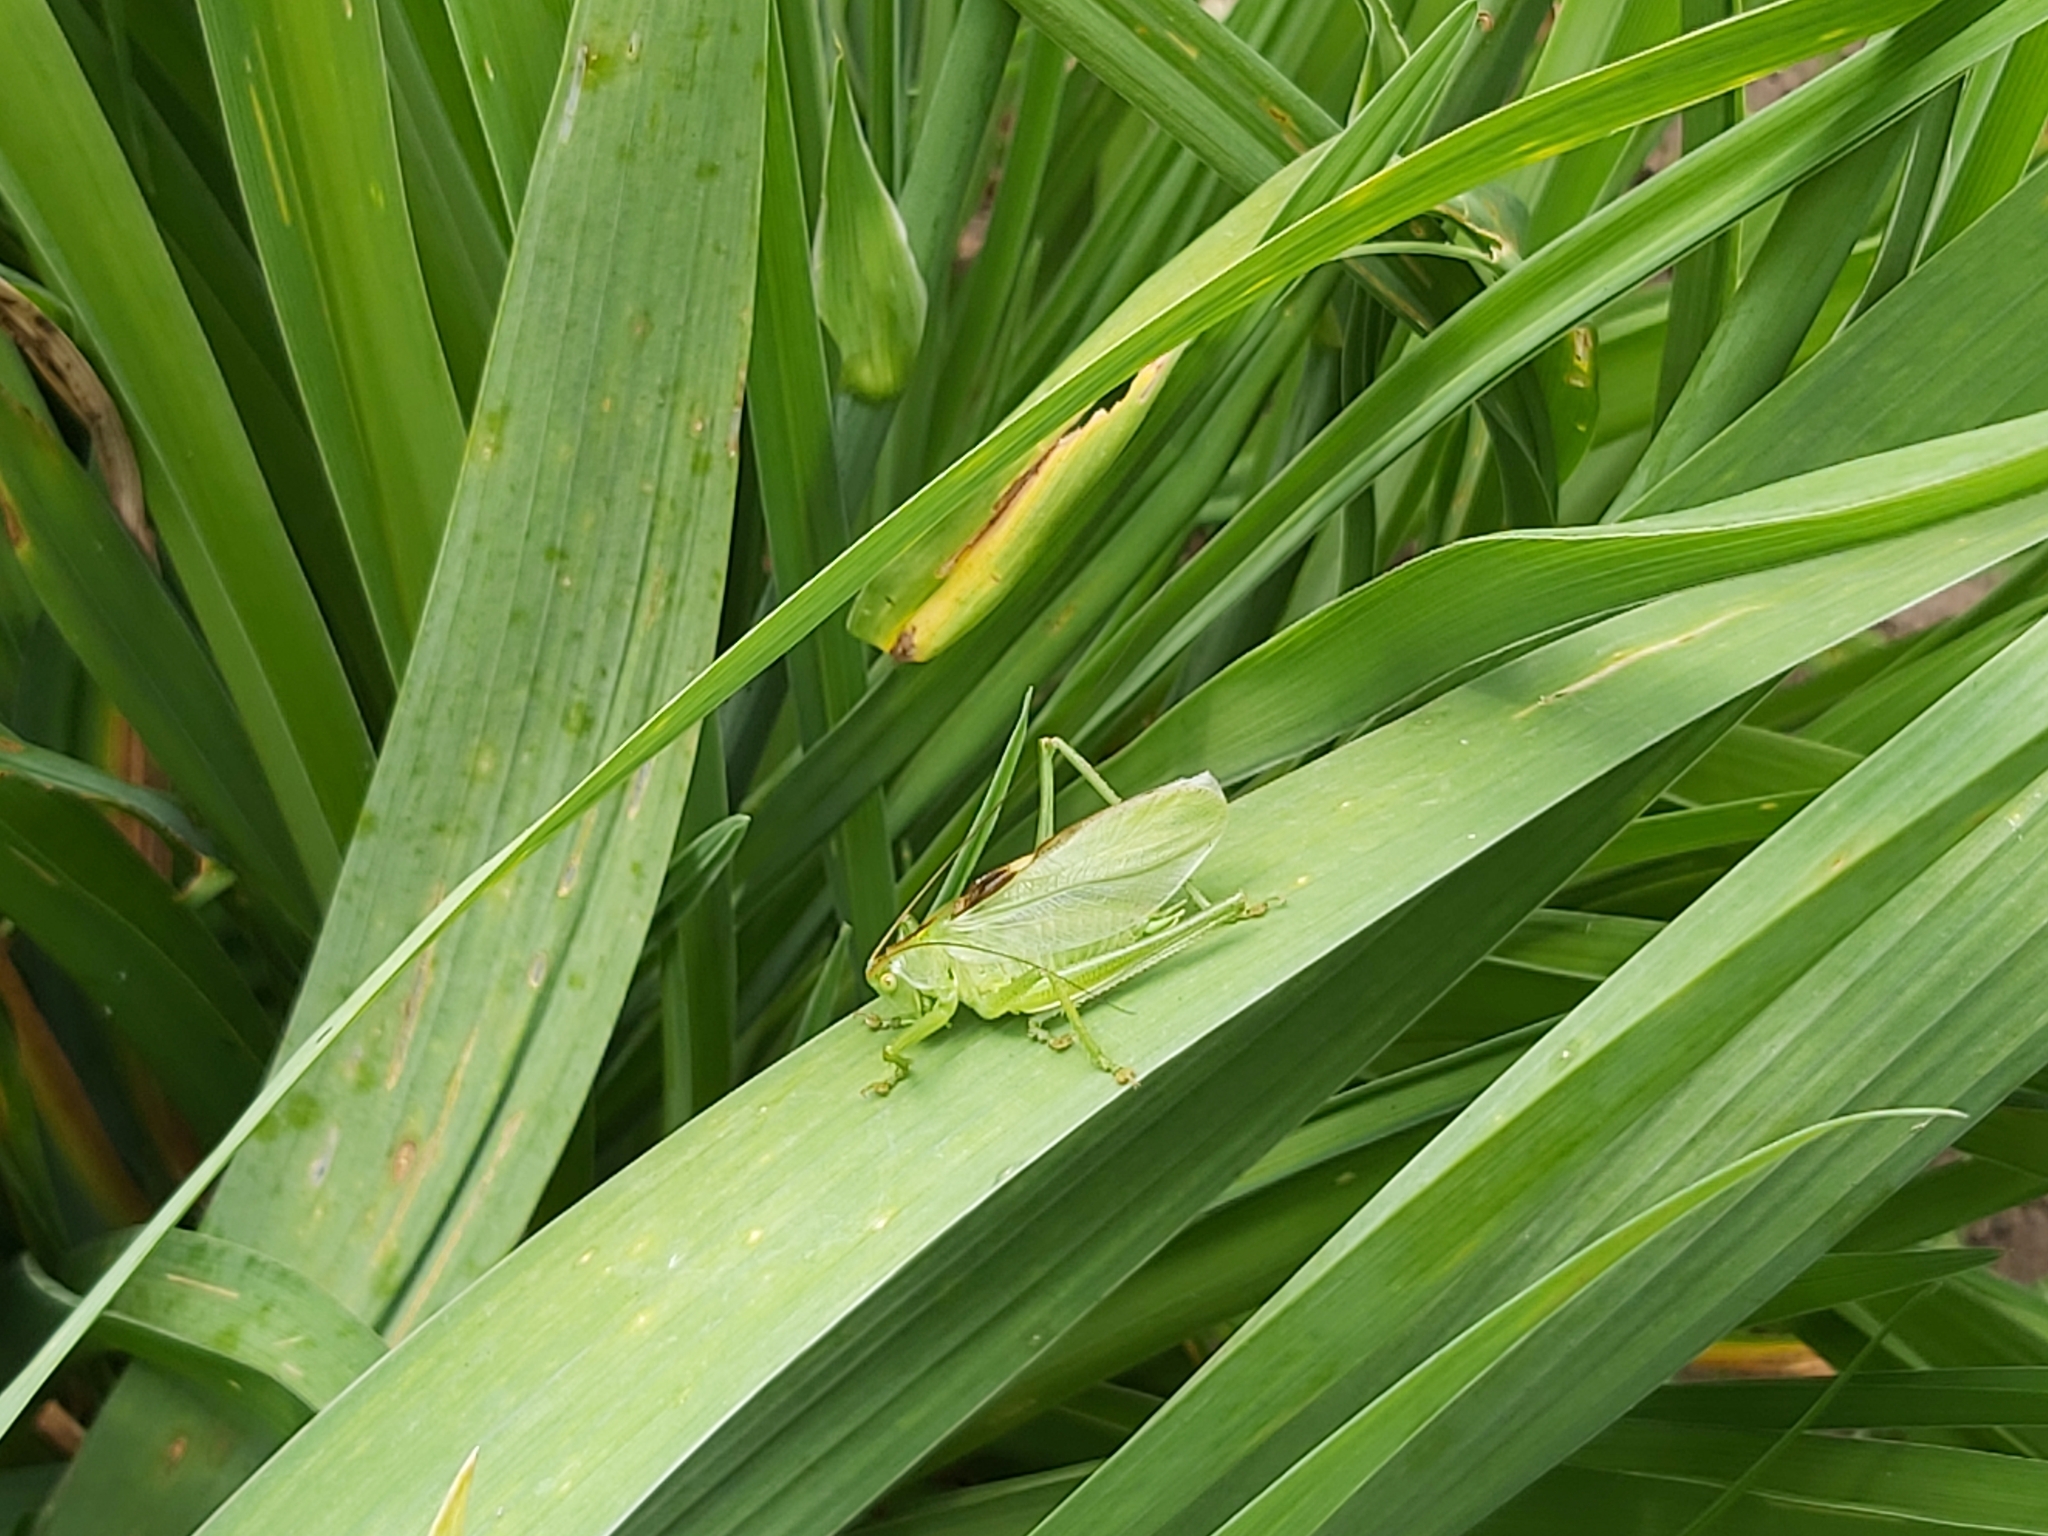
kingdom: Animalia
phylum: Arthropoda
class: Insecta
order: Orthoptera
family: Tettigoniidae
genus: Tettigonia
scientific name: Tettigonia cantans
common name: Upland green bush-cricket
